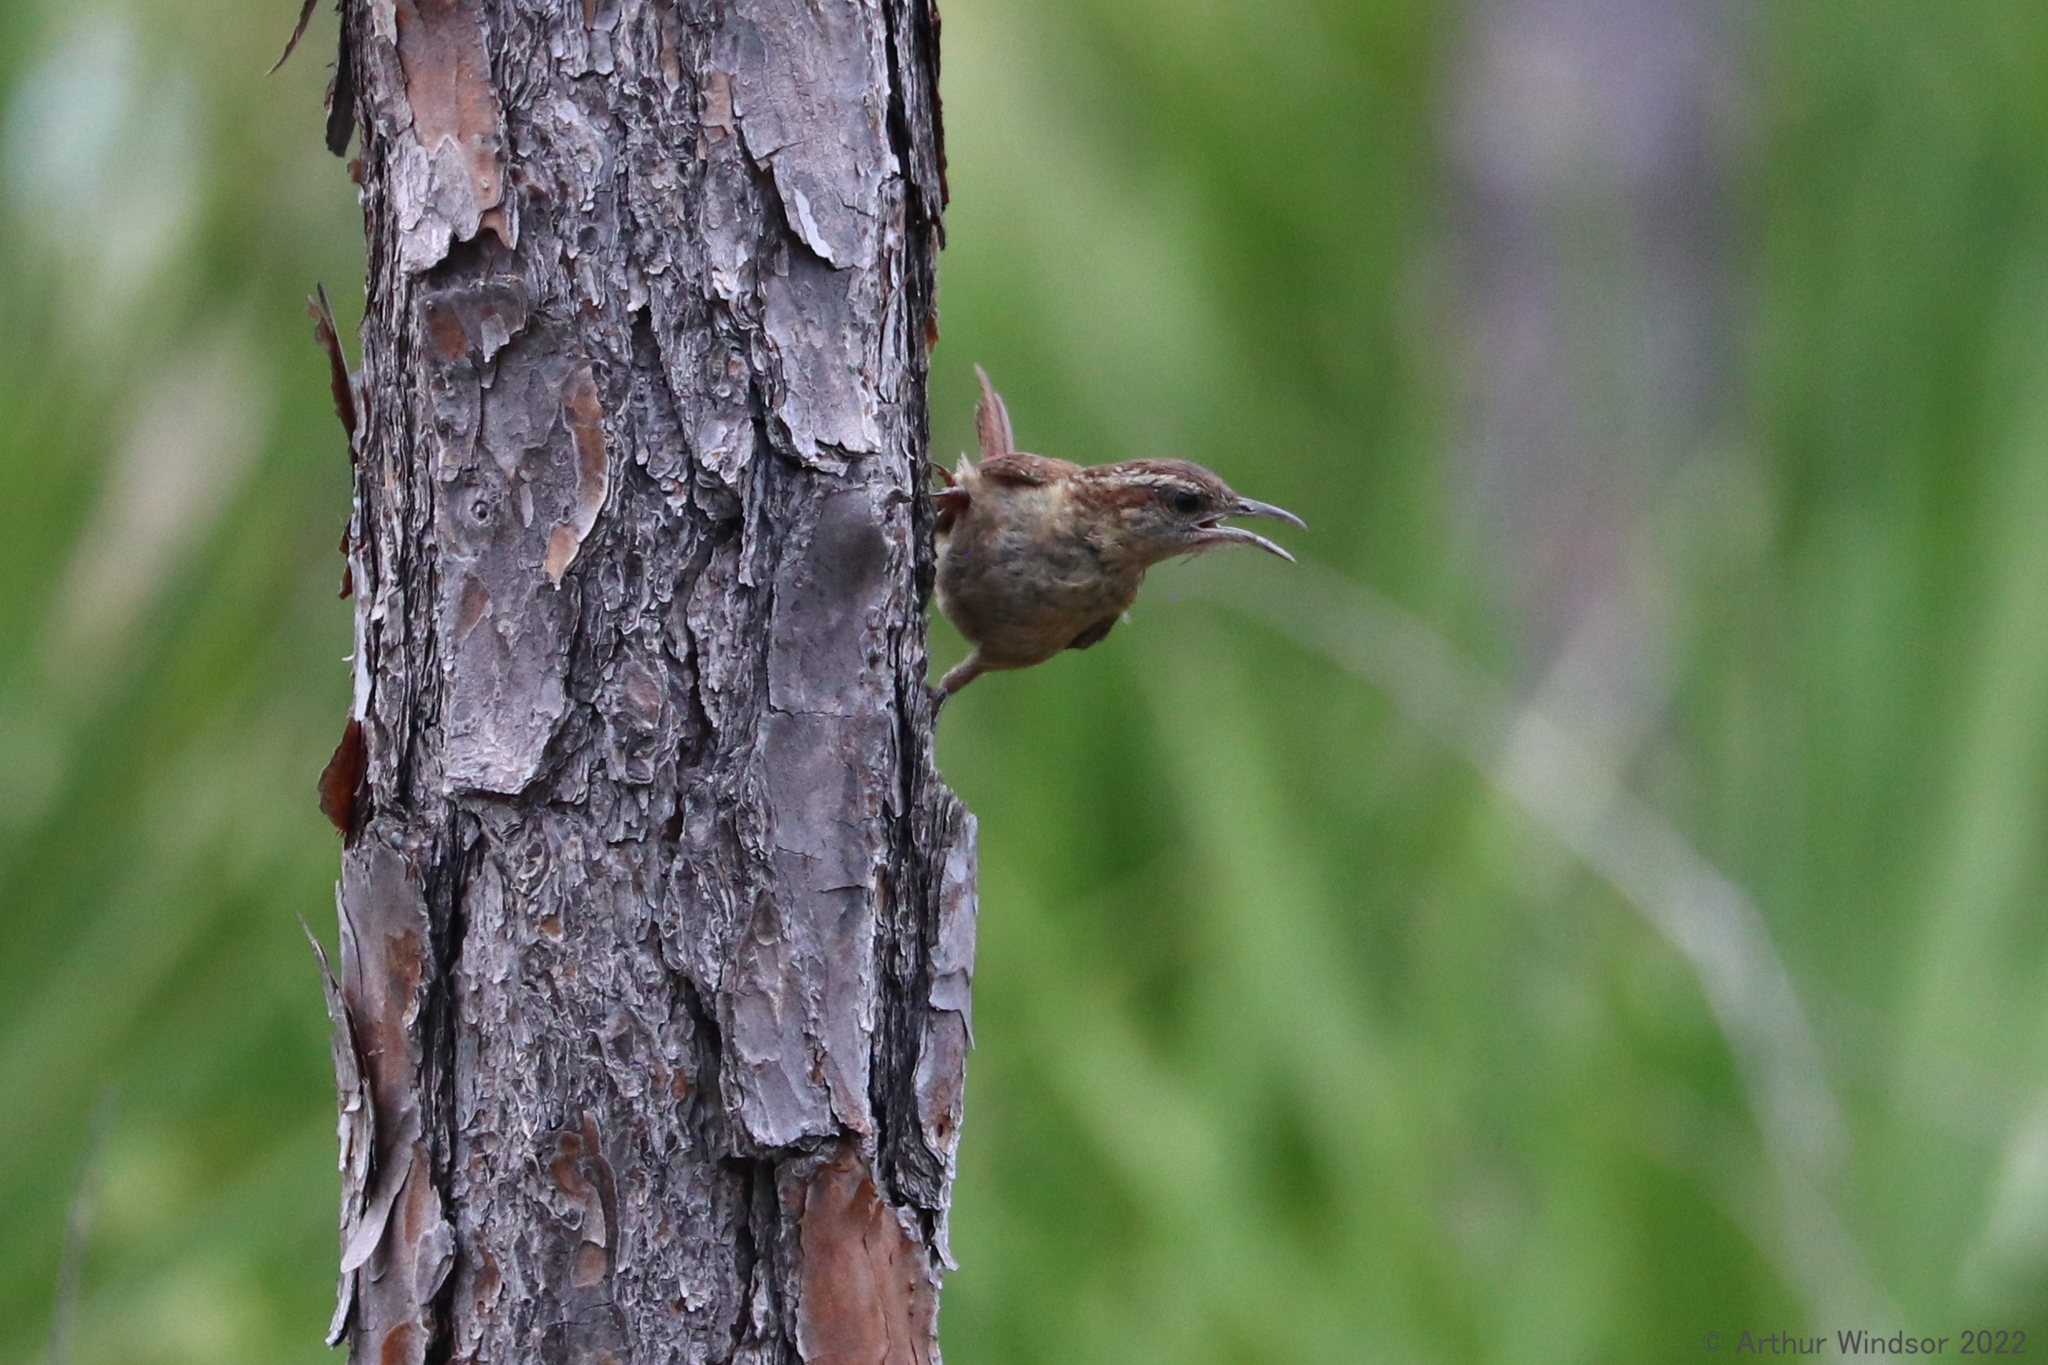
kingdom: Animalia
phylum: Chordata
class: Aves
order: Passeriformes
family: Troglodytidae
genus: Thryothorus
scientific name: Thryothorus ludovicianus
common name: Carolina wren
